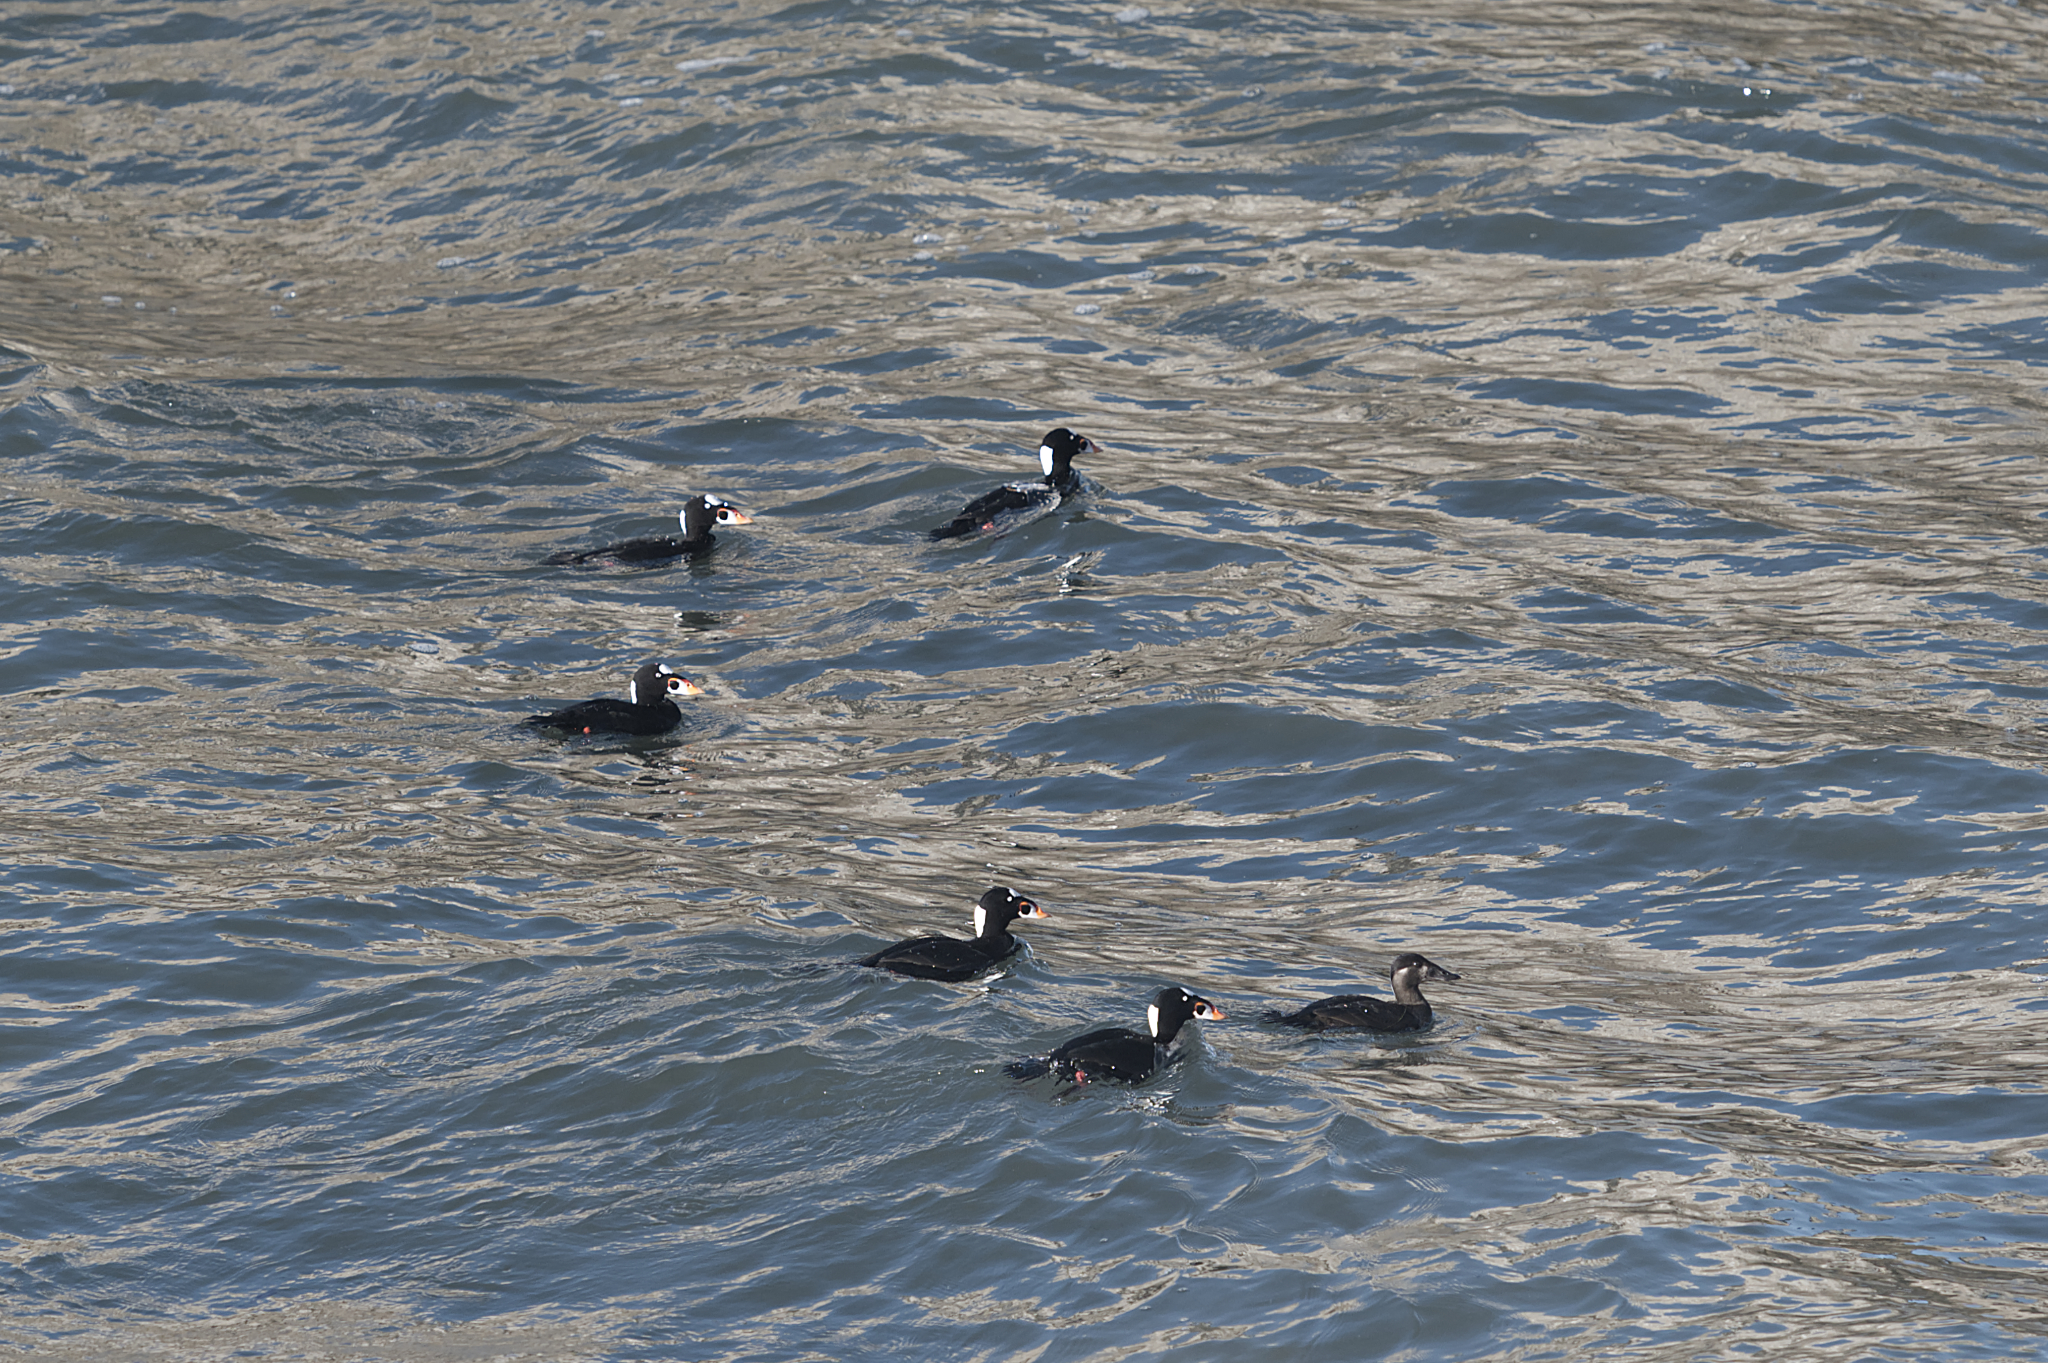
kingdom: Animalia
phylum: Chordata
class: Aves
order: Anseriformes
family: Anatidae
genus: Melanitta
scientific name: Melanitta perspicillata
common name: Surf scoter
